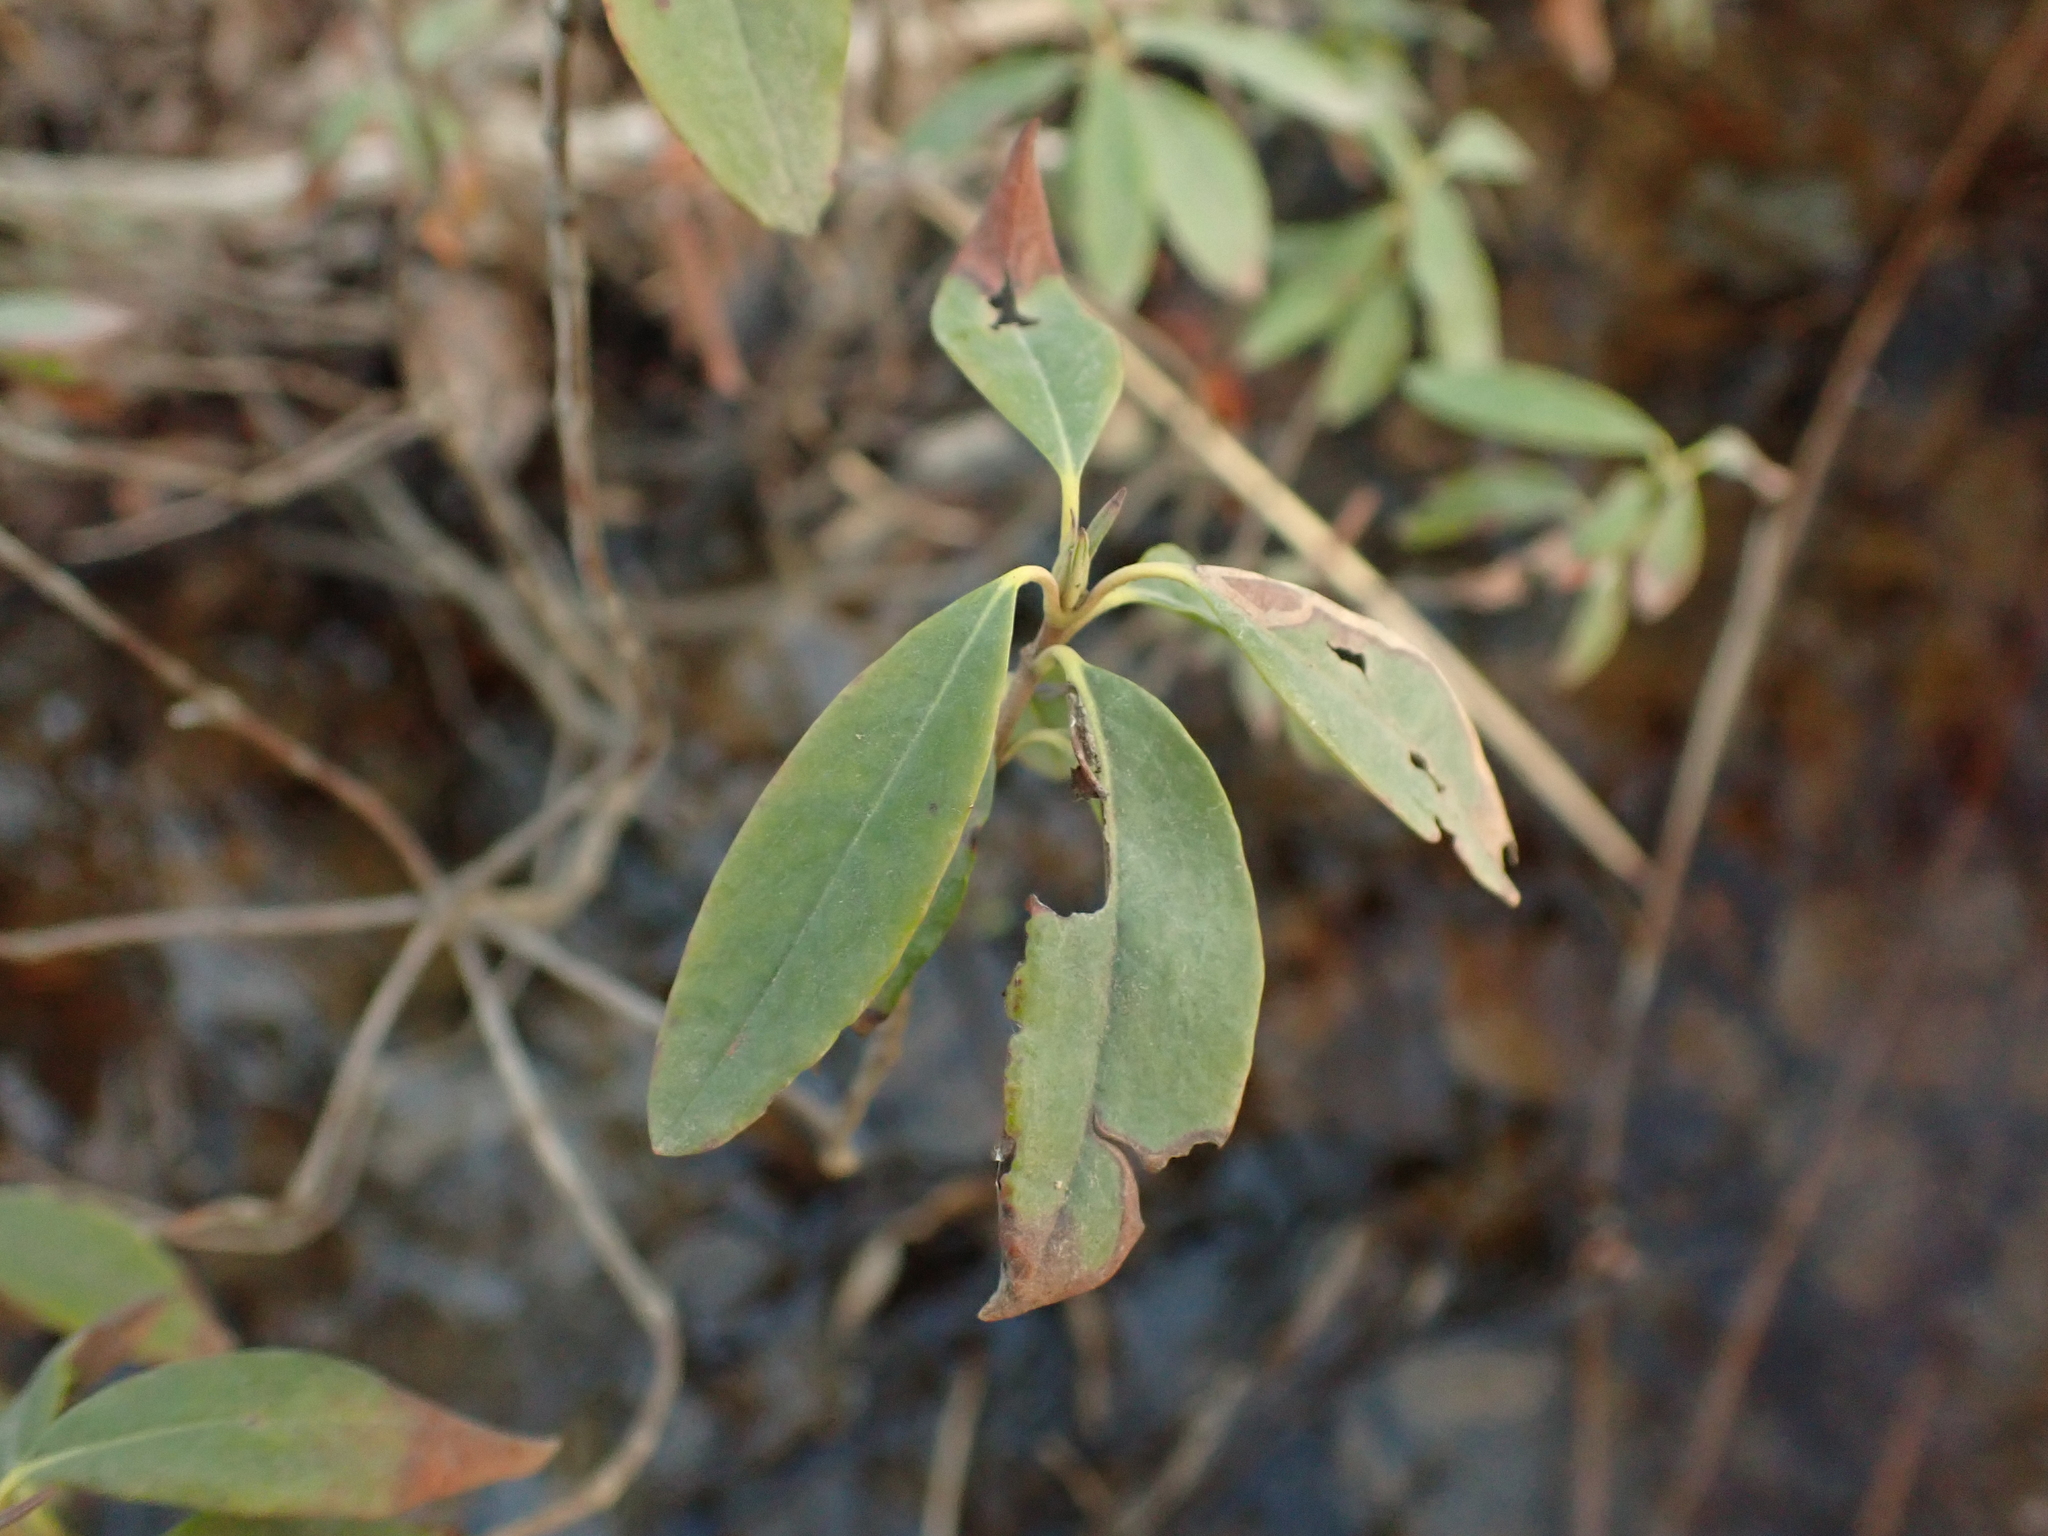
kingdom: Plantae
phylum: Tracheophyta
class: Magnoliopsida
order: Ericales
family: Ericaceae
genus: Kalmia
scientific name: Kalmia angustifolia
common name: Sheep-laurel
